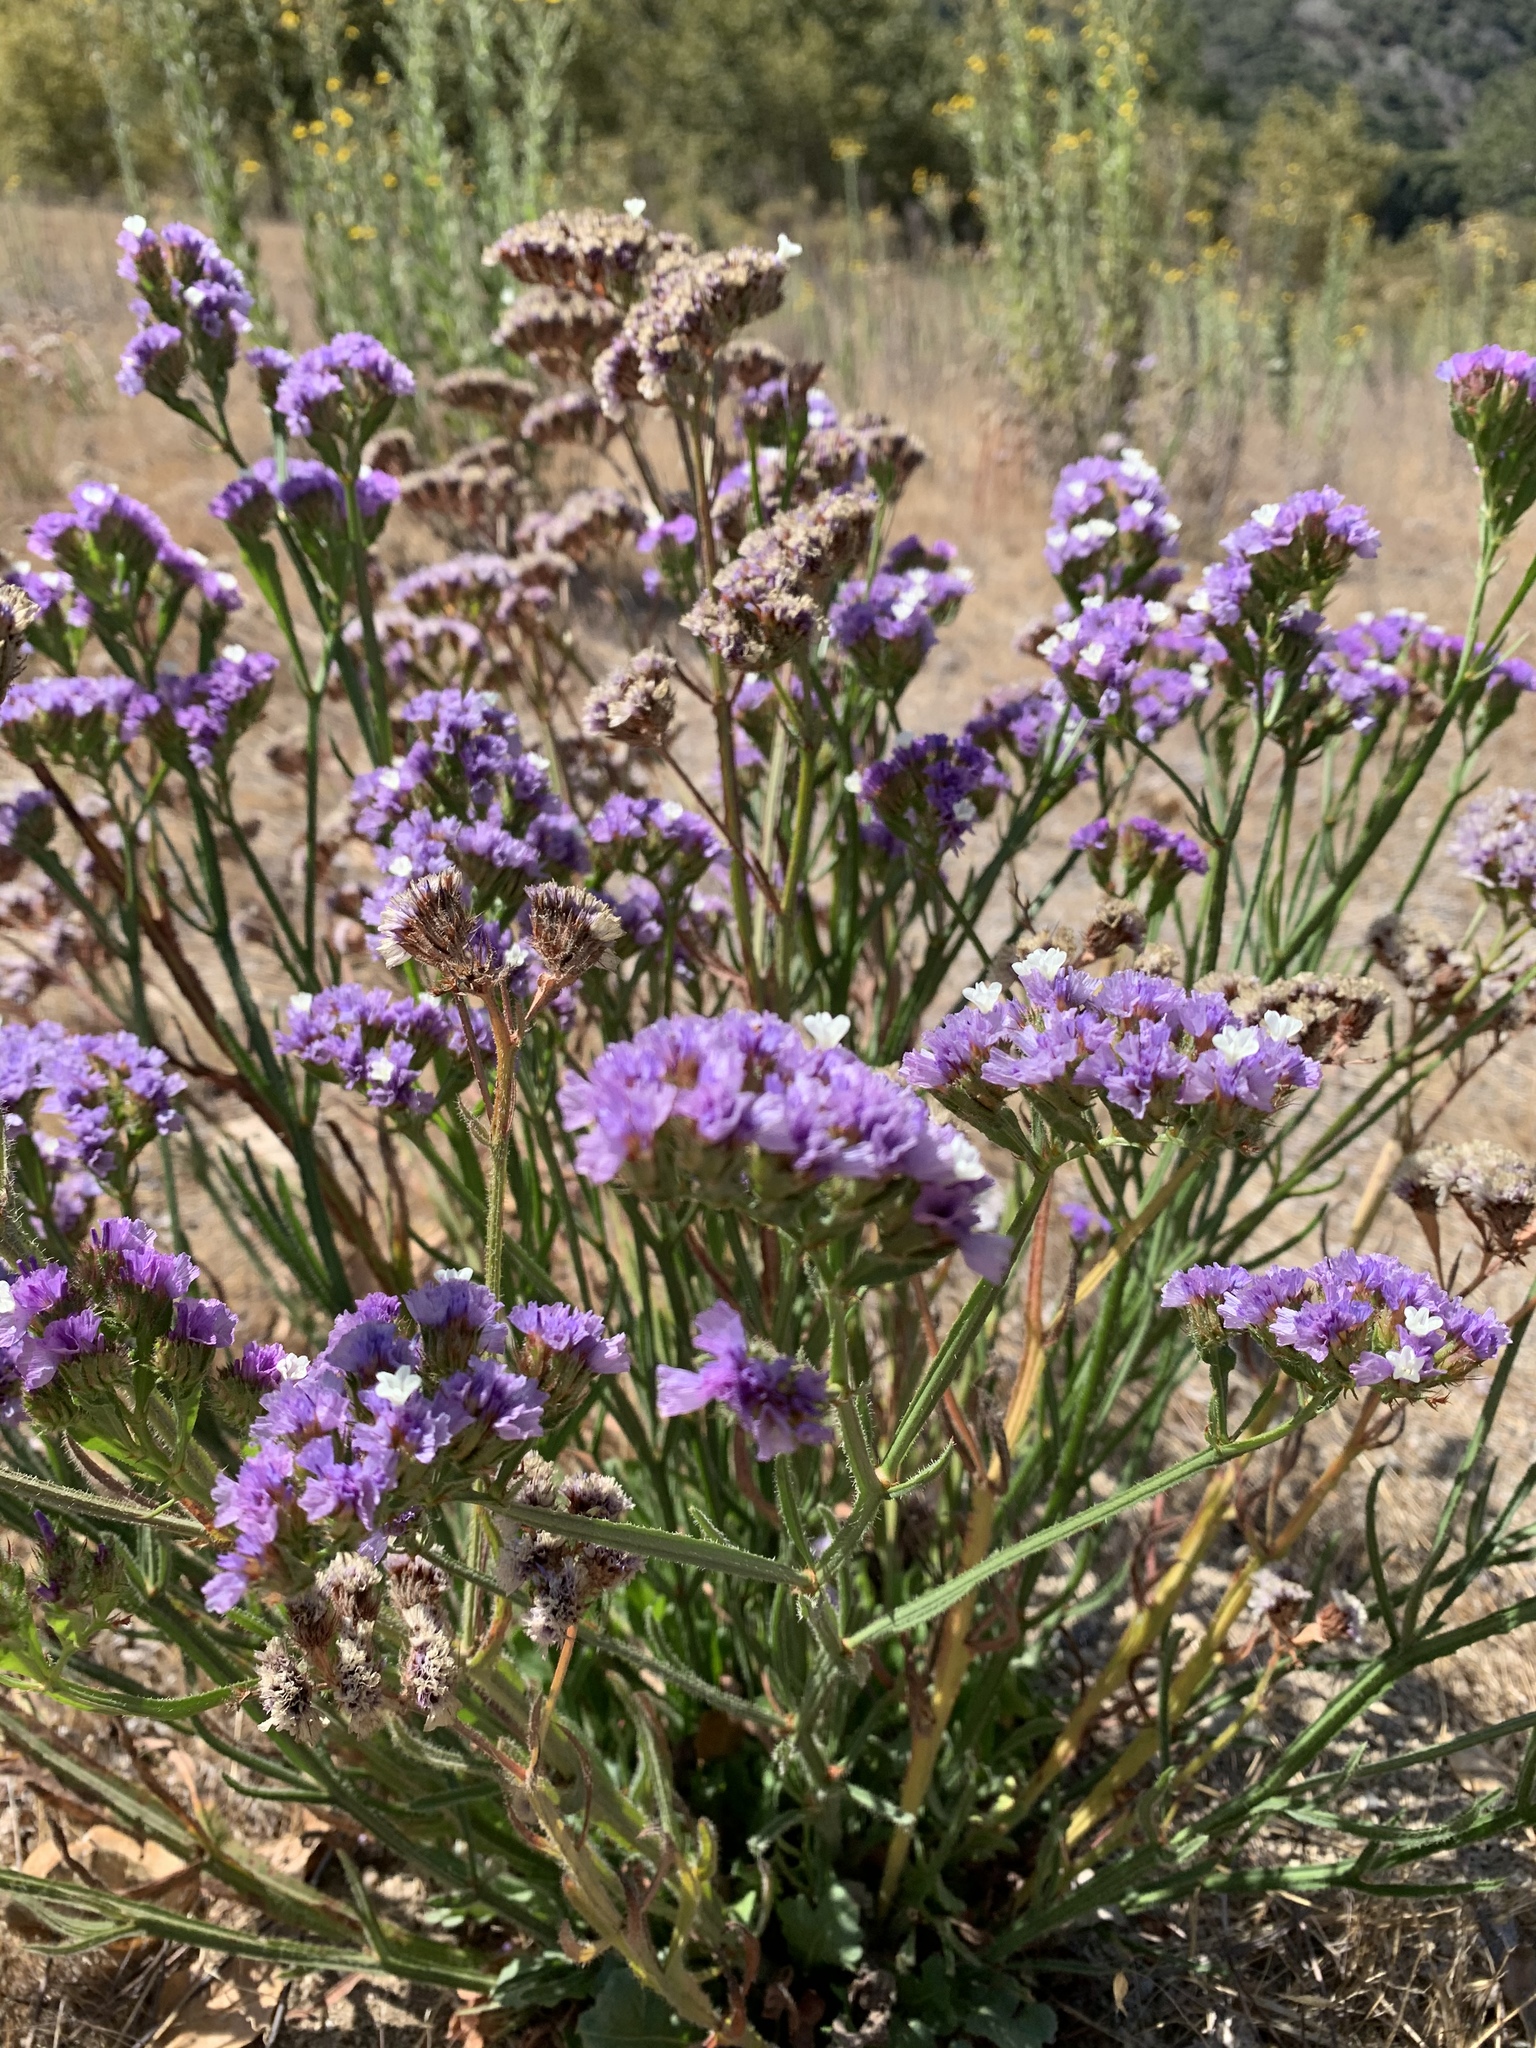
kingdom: Plantae
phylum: Tracheophyta
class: Magnoliopsida
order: Caryophyllales
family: Plumbaginaceae
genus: Limonium
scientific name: Limonium sinuatum
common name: Statice
